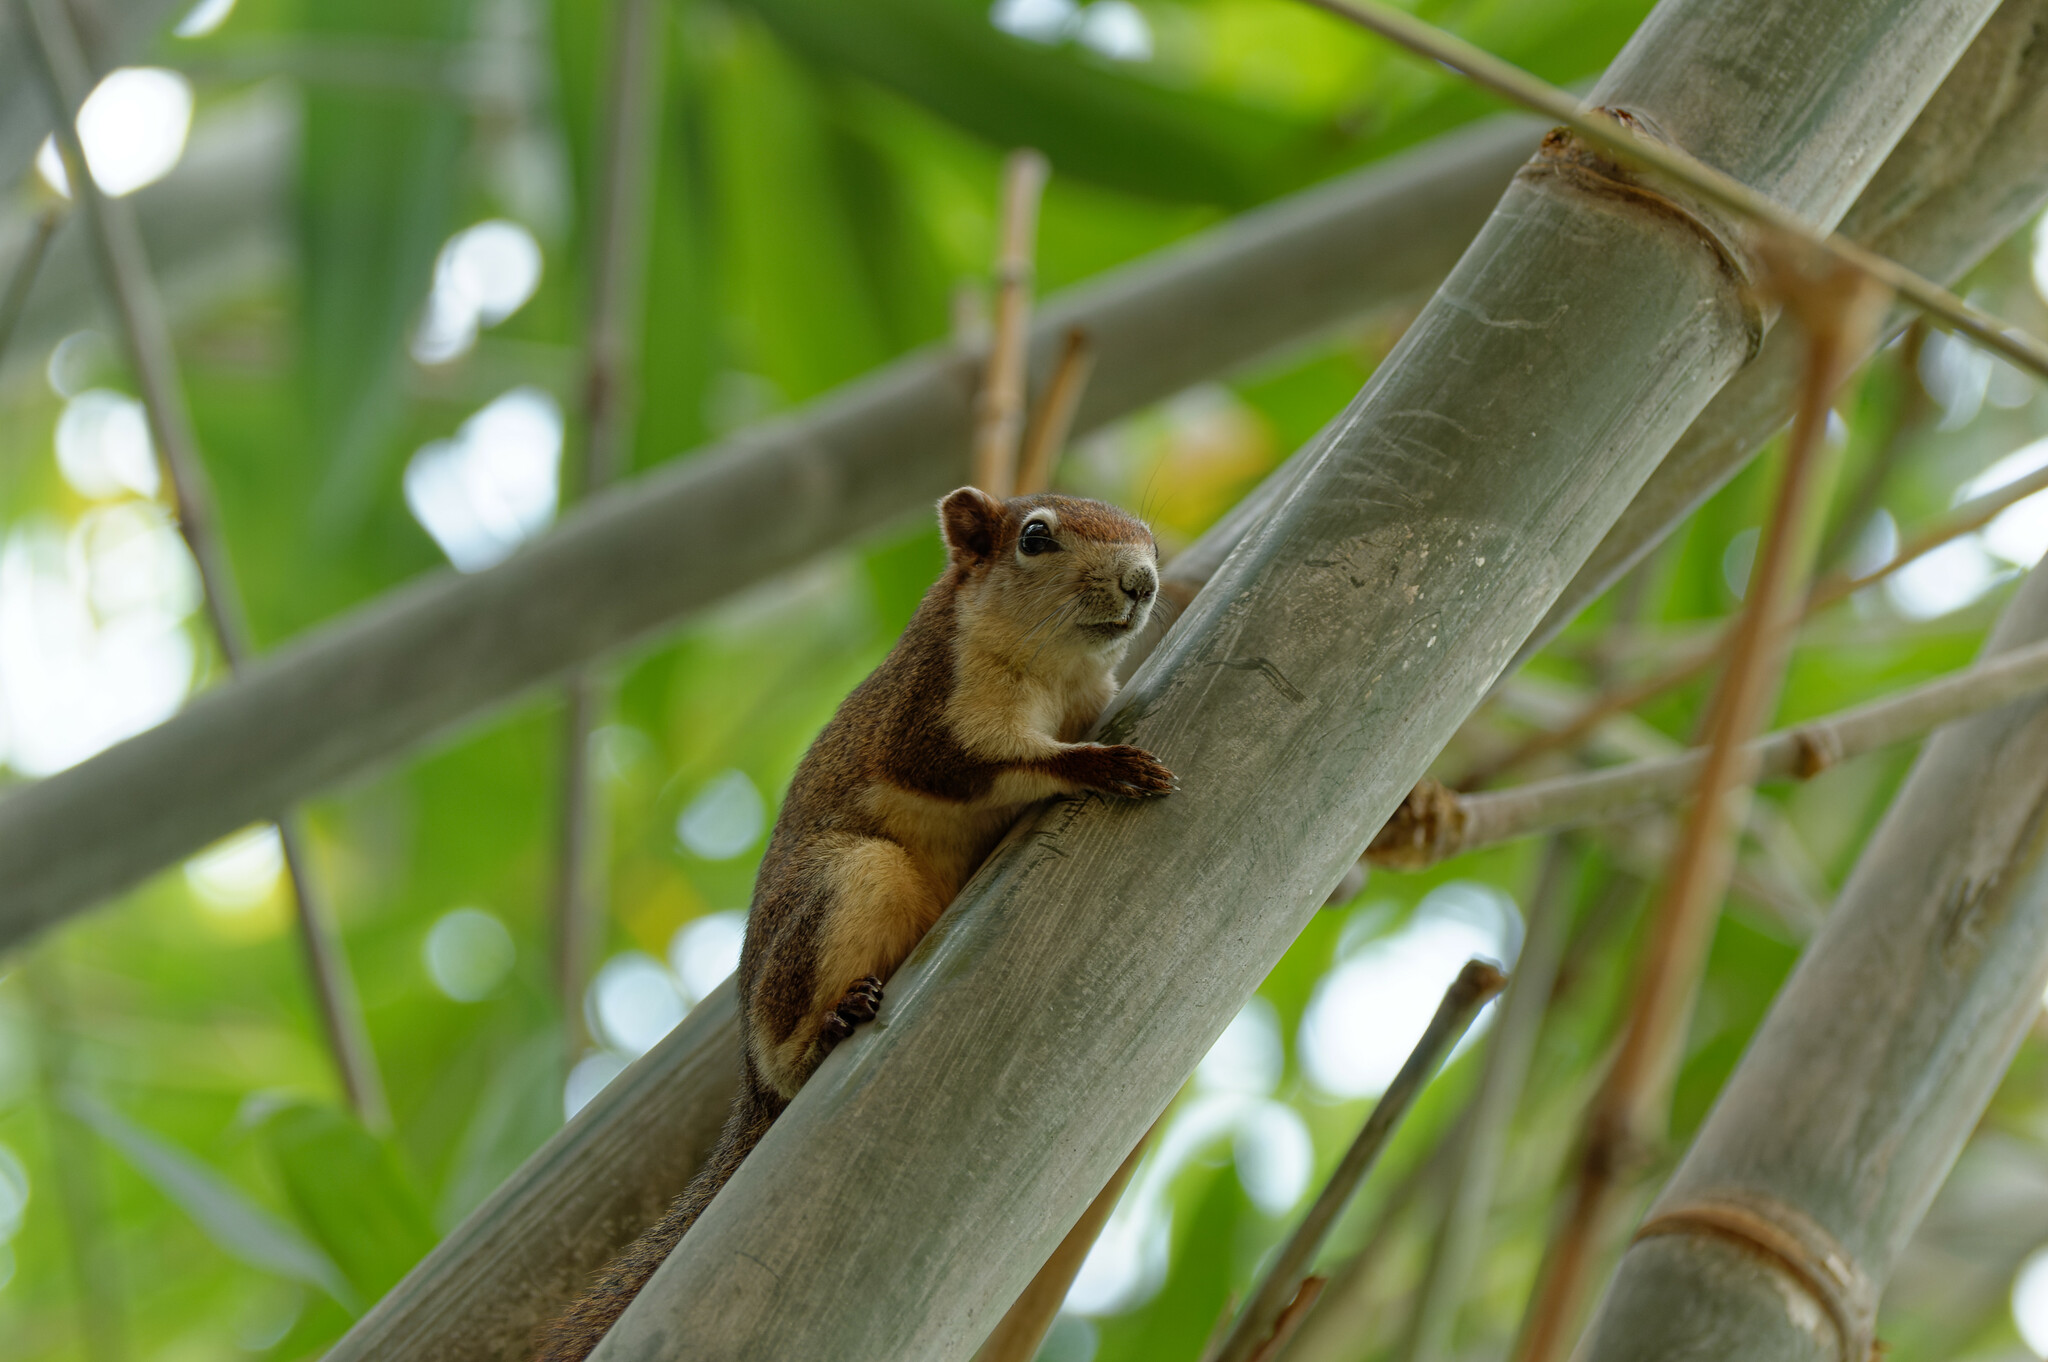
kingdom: Animalia
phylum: Chordata
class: Mammalia
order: Rodentia
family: Sciuridae
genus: Callosciurus
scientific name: Callosciurus finlaysonii
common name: Finlayson's squirrel
